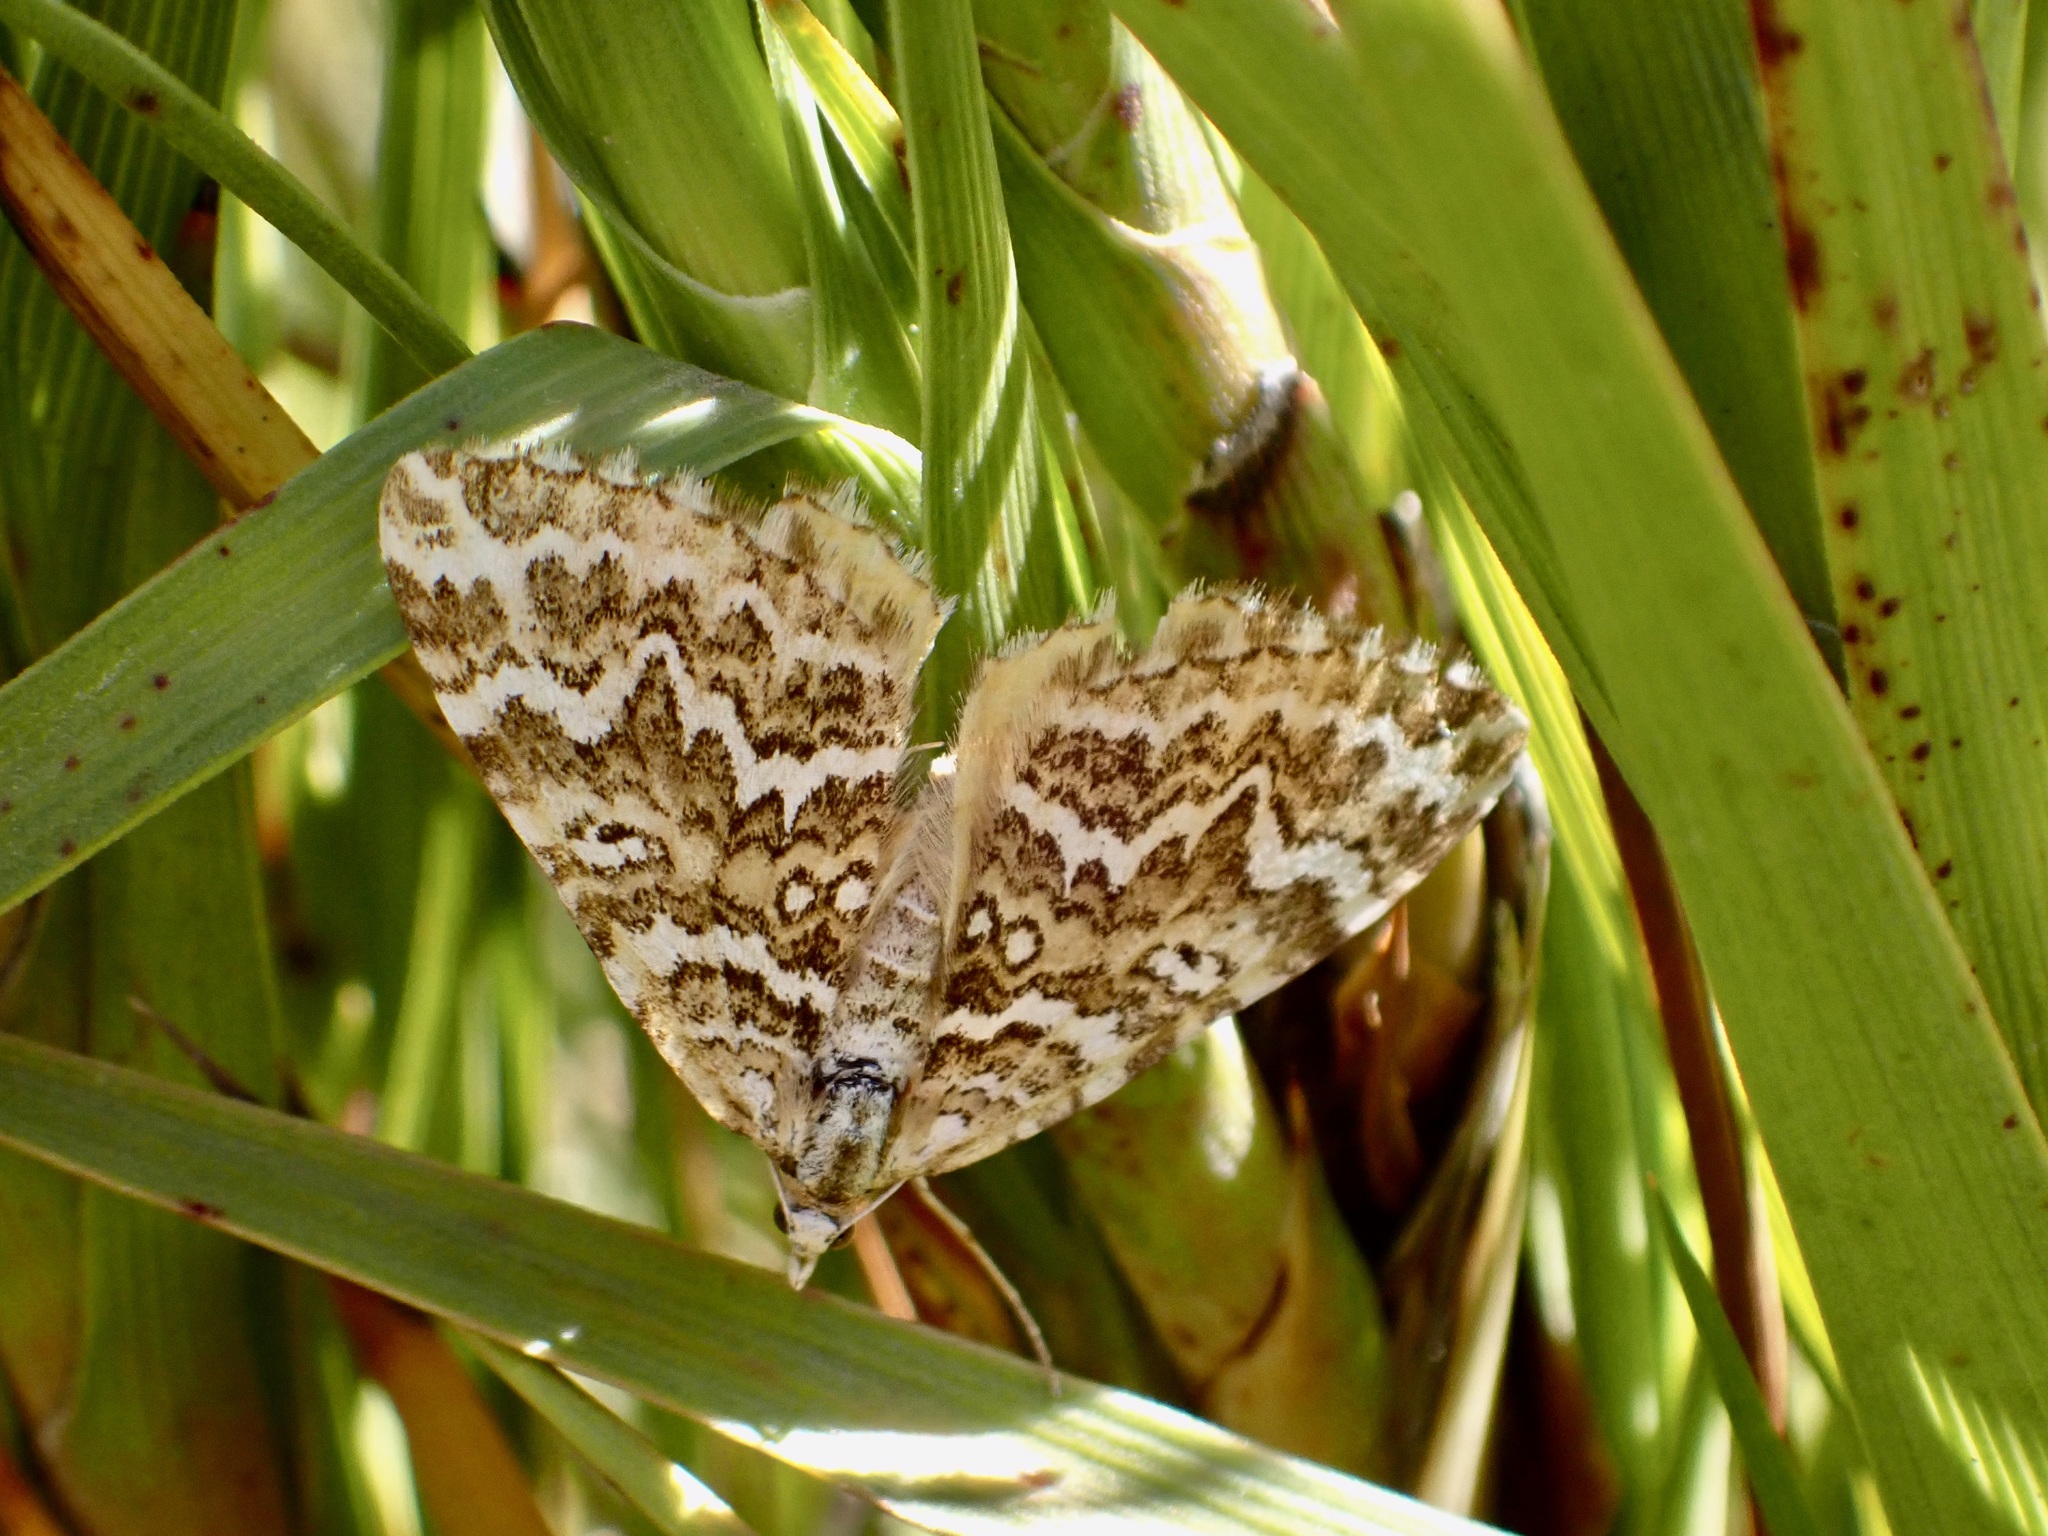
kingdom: Animalia
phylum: Arthropoda
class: Insecta
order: Lepidoptera
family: Geometridae
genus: Asaphodes
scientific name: Asaphodes clarata
